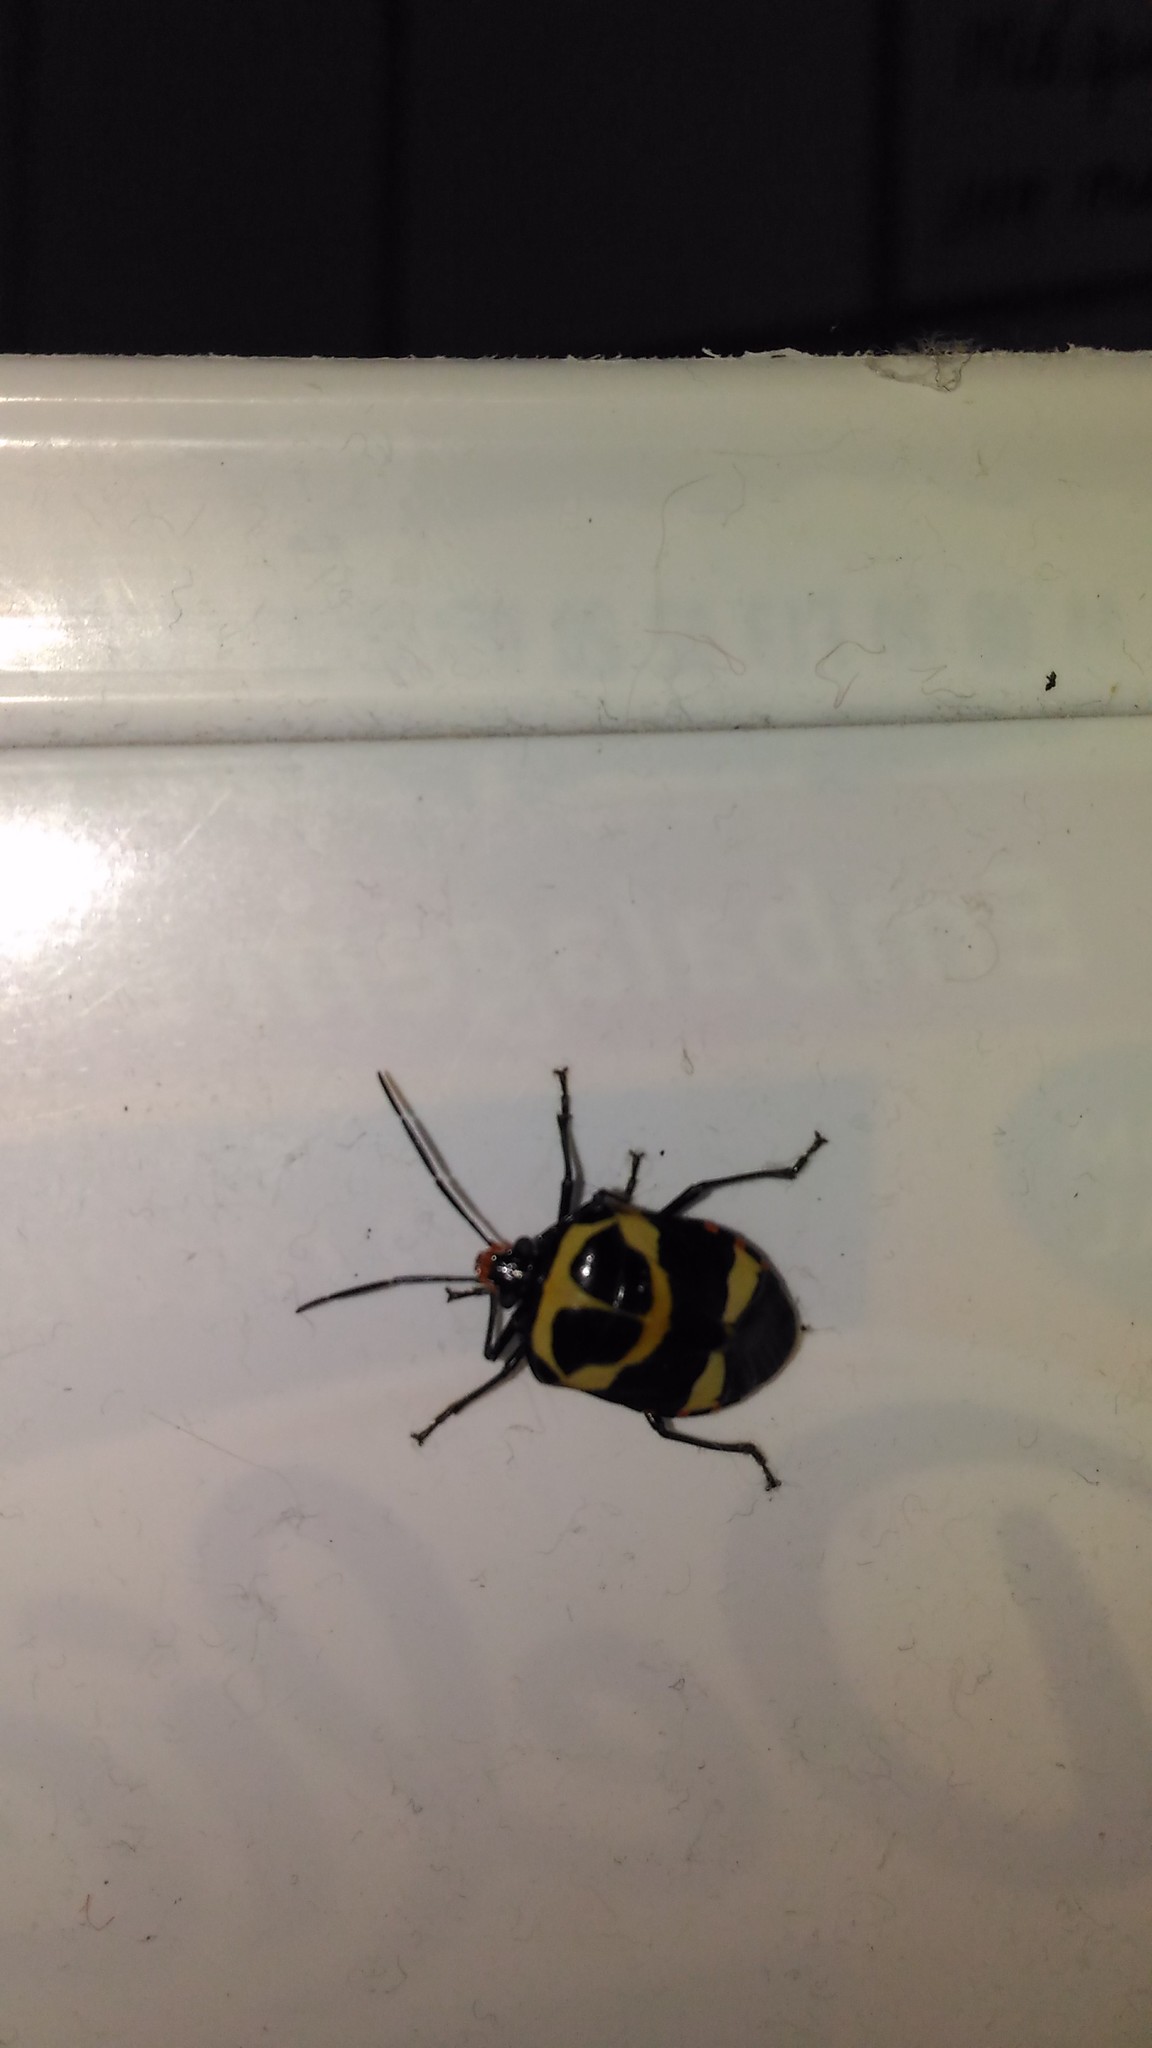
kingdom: Animalia
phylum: Arthropoda
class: Insecta
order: Hemiptera
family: Pentatomidae
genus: Arocera
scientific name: Arocera
